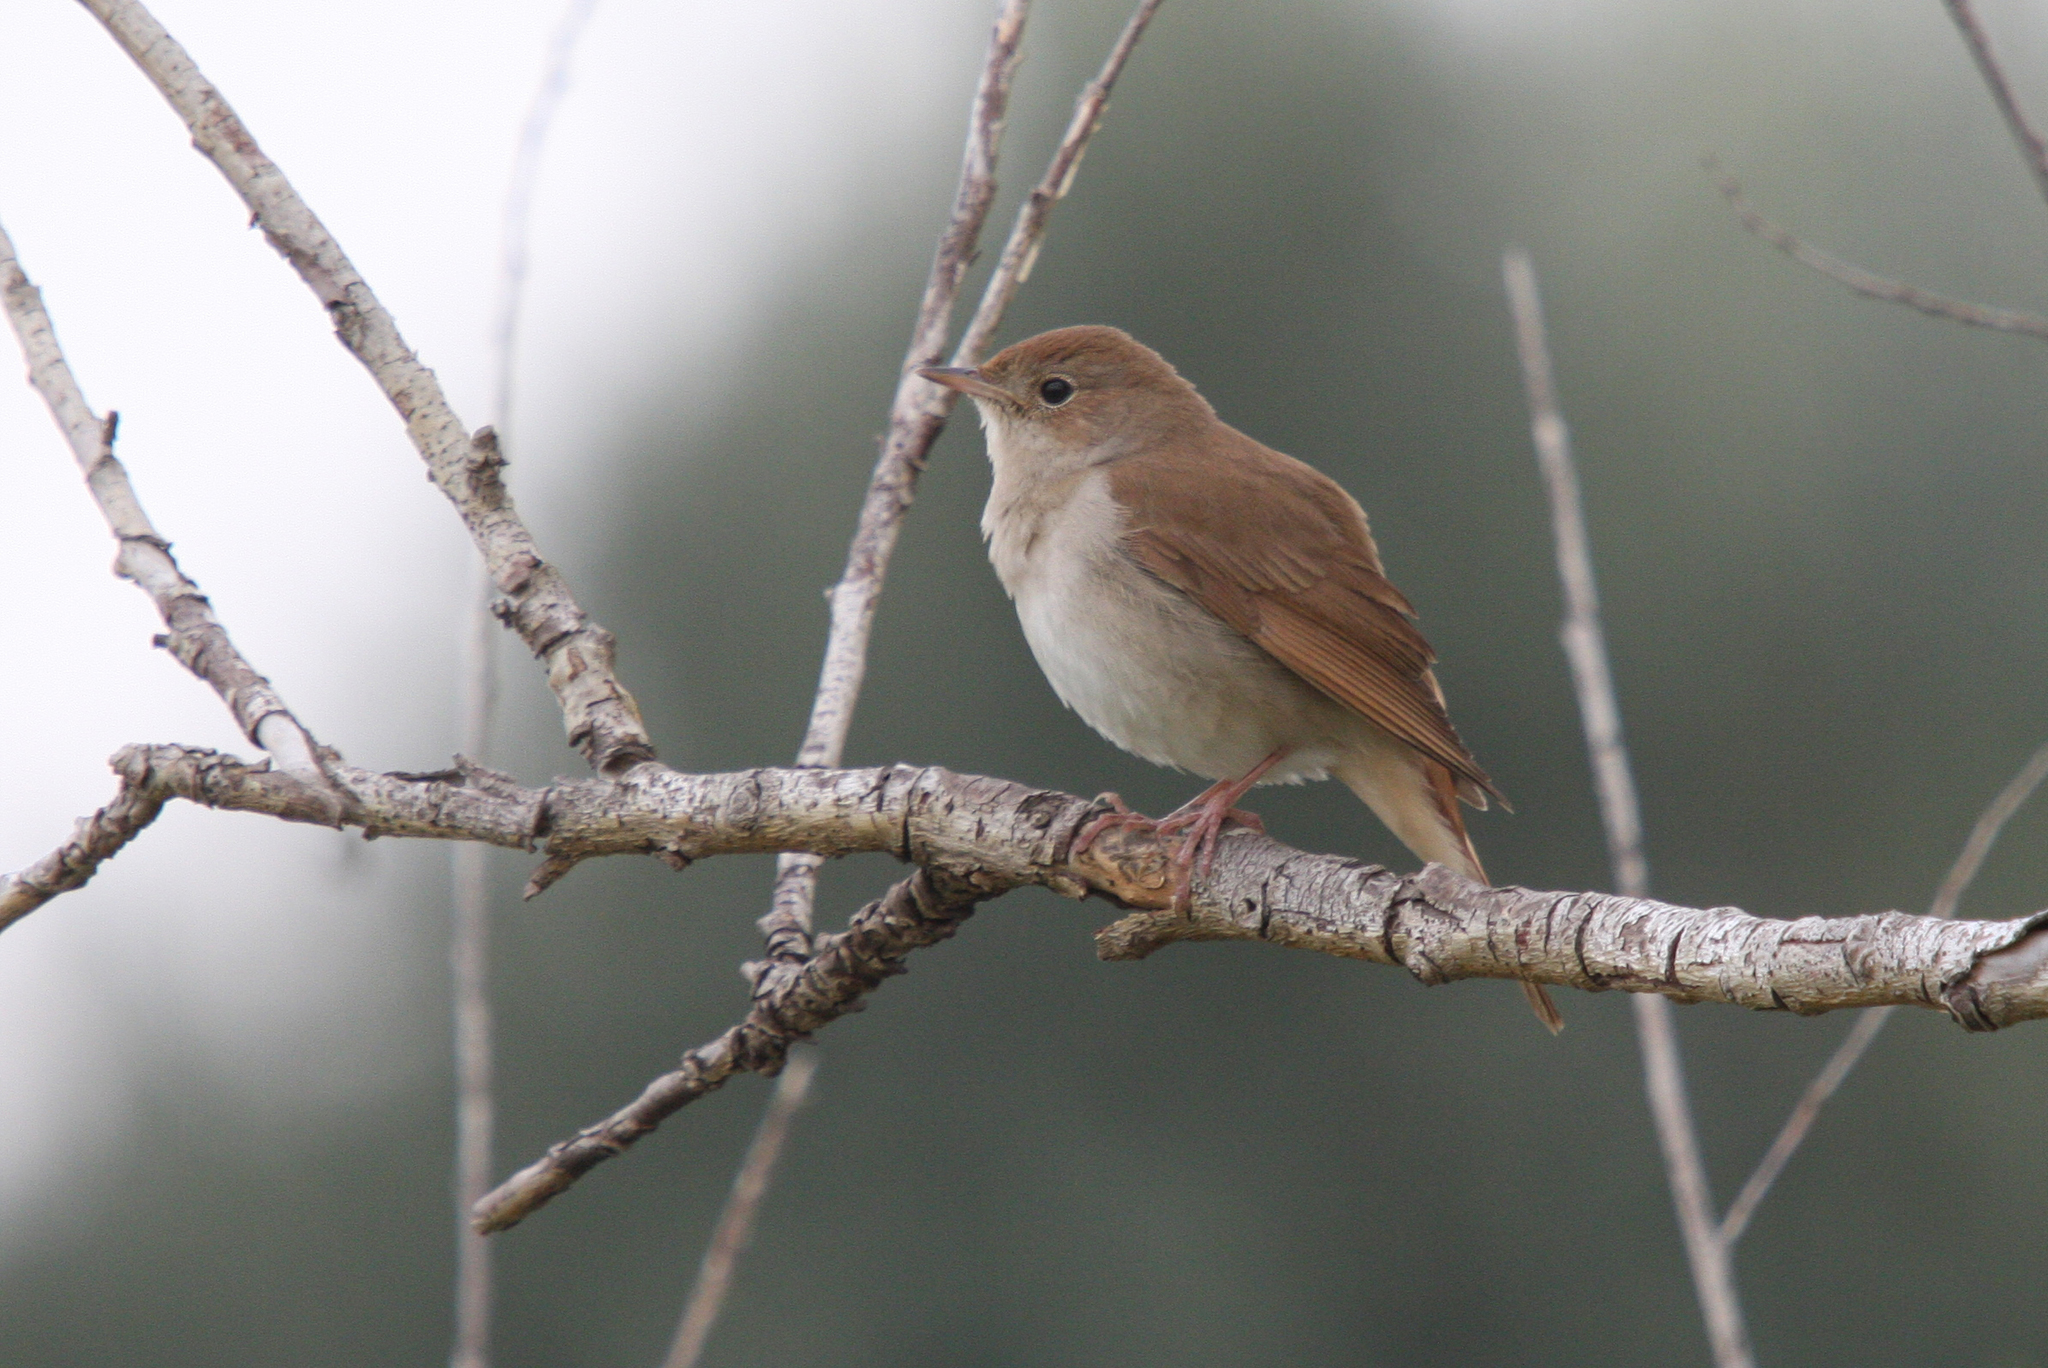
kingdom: Animalia
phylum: Chordata
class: Aves
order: Passeriformes
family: Muscicapidae
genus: Luscinia
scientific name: Luscinia megarhynchos
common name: Common nightingale
